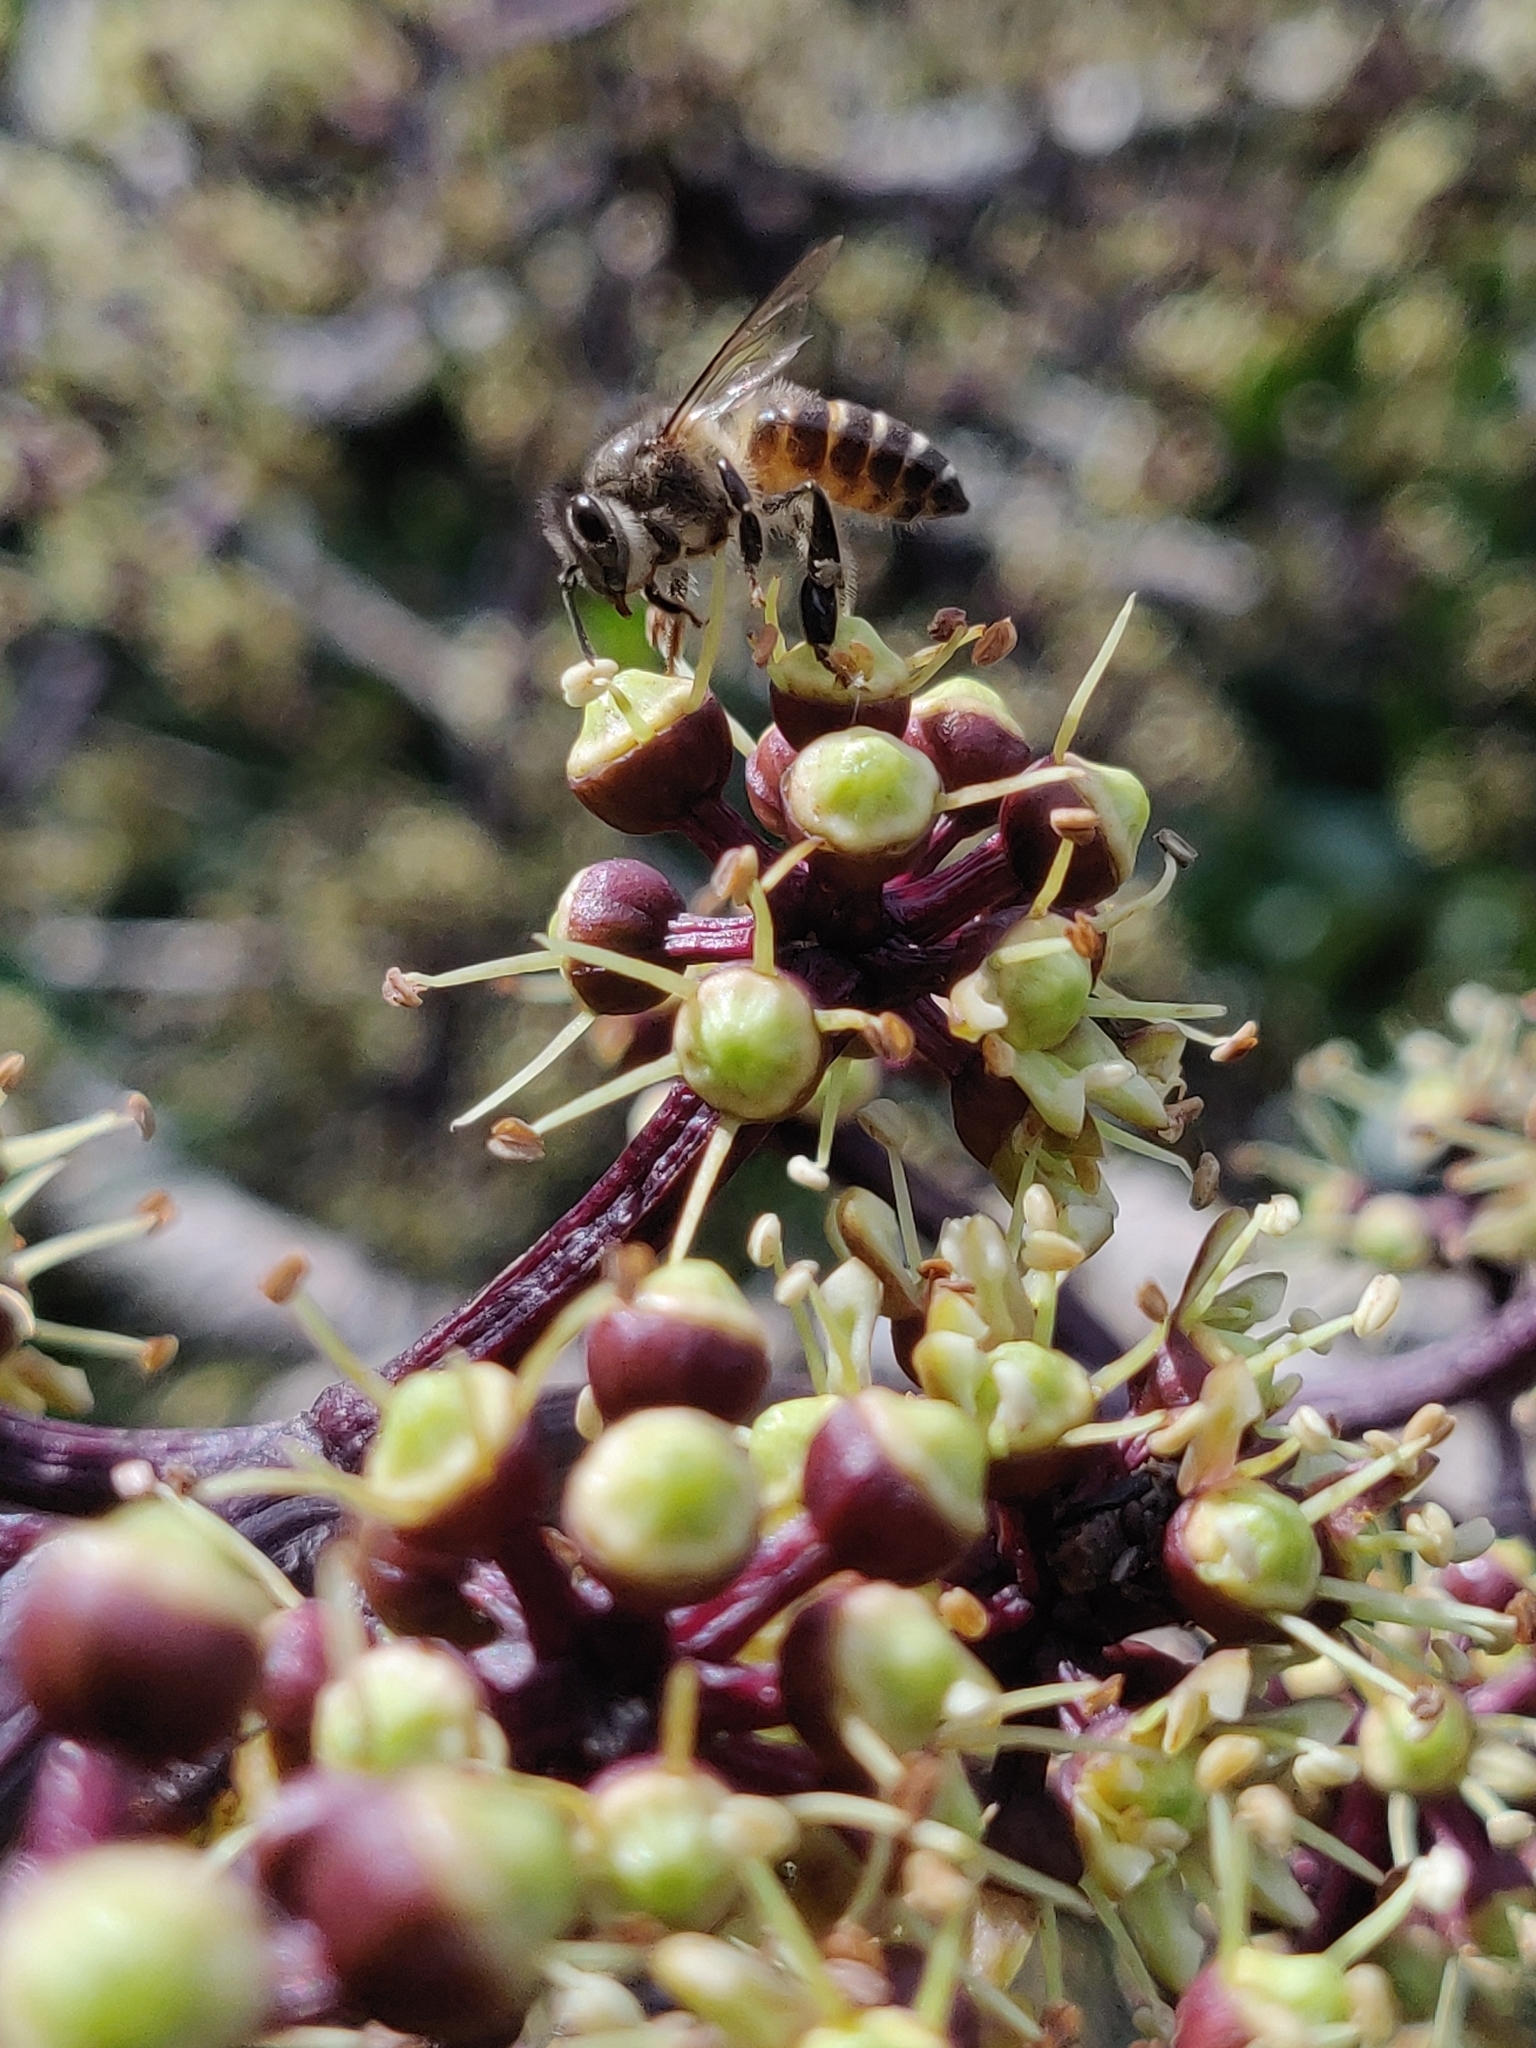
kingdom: Animalia
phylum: Arthropoda
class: Insecta
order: Hymenoptera
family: Apidae
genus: Apis
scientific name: Apis cerana
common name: Honey bee
